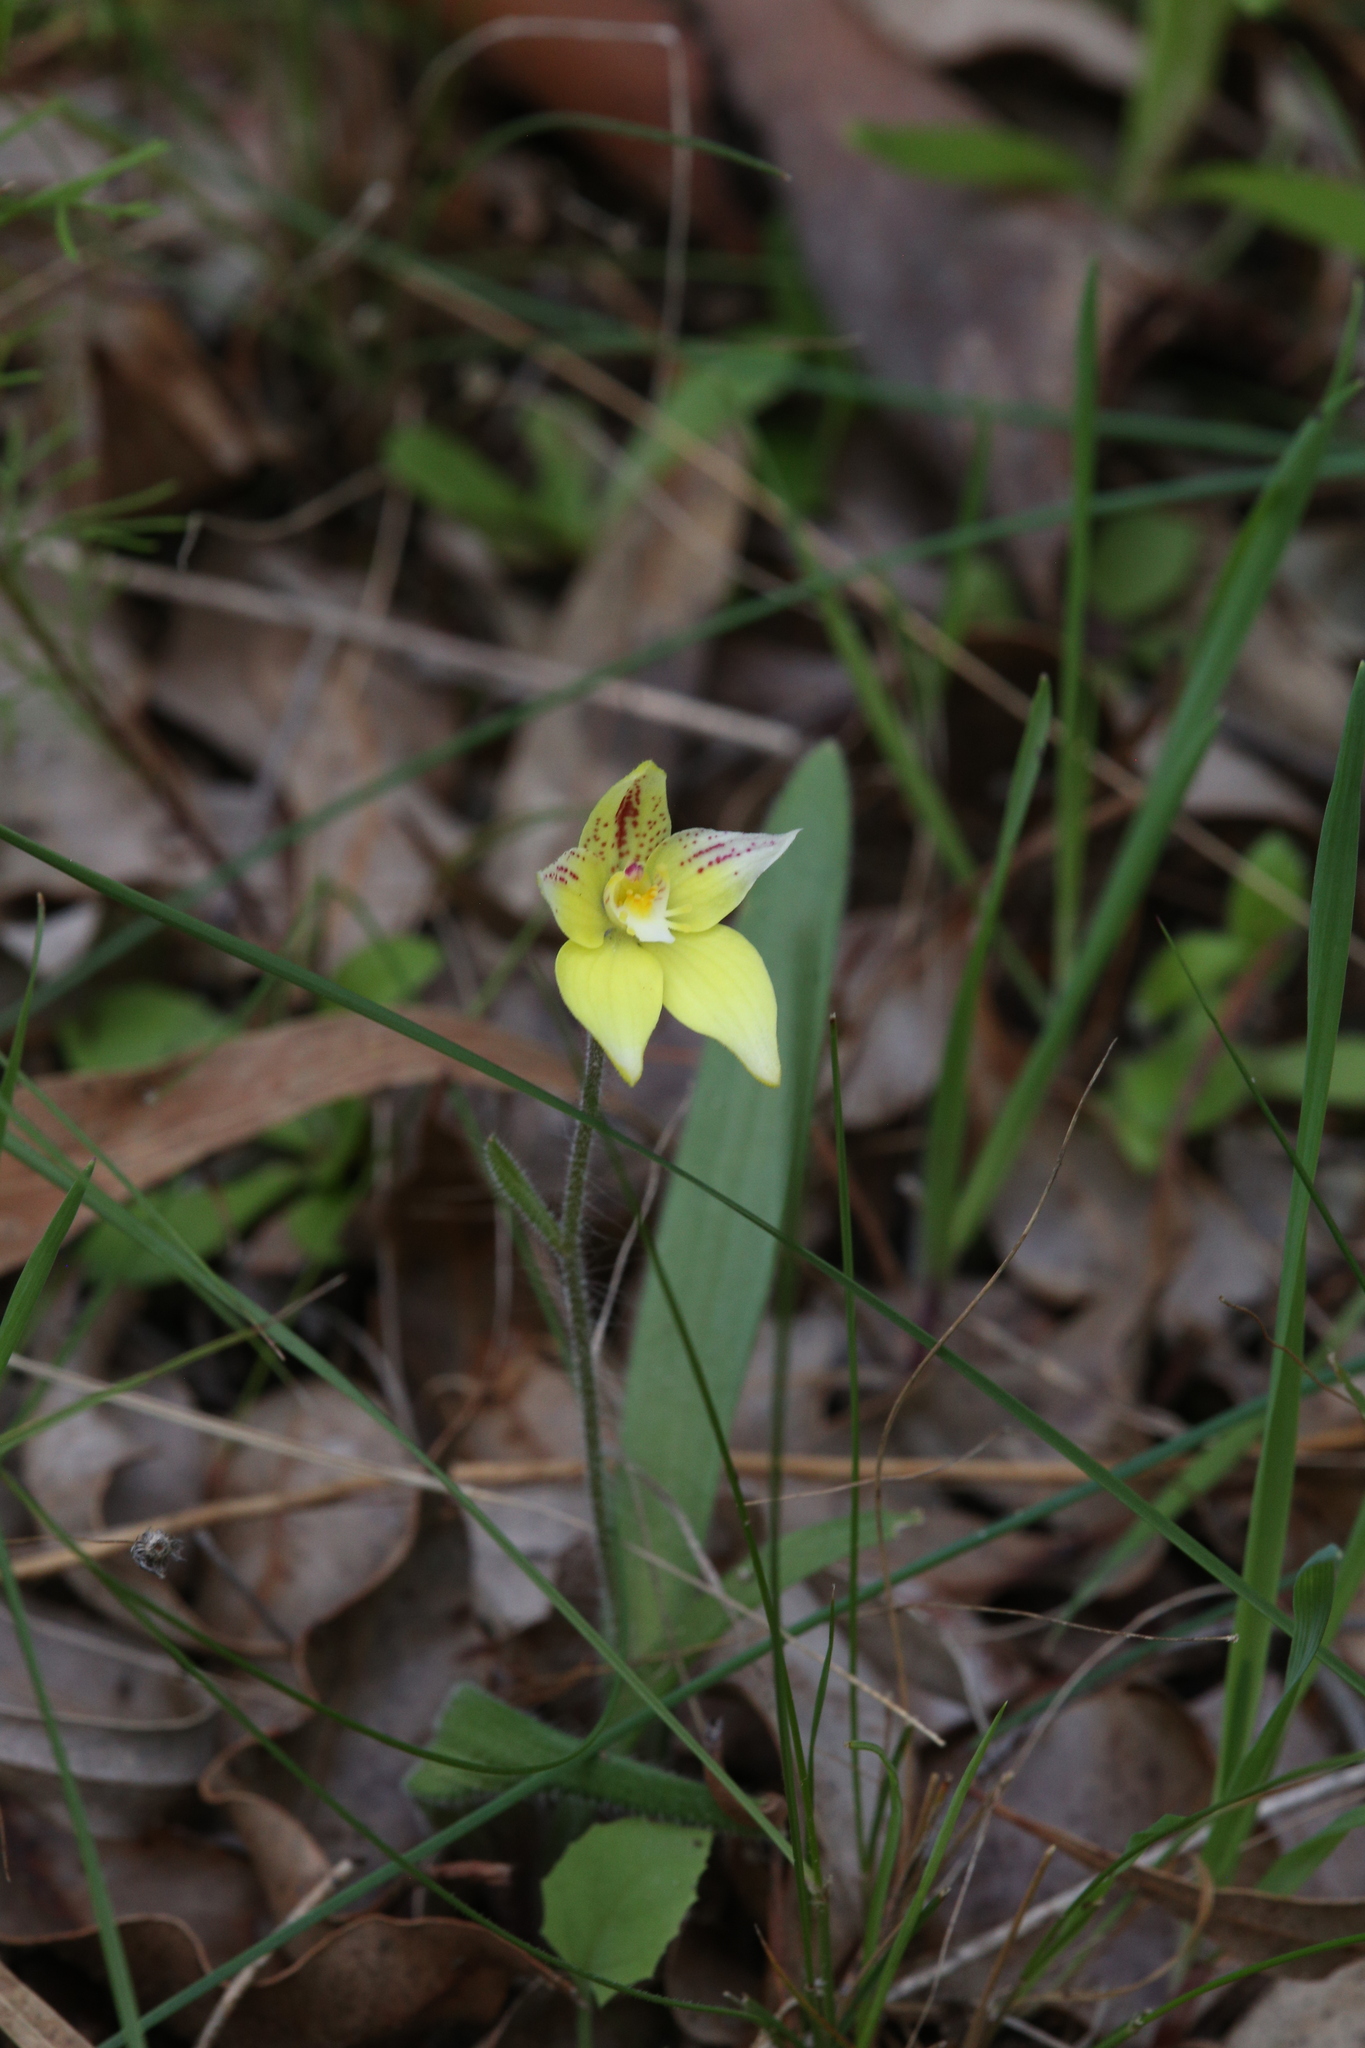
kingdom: Plantae
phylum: Tracheophyta
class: Liliopsida
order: Asparagales
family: Orchidaceae
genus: Caladenia
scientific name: Caladenia flava
